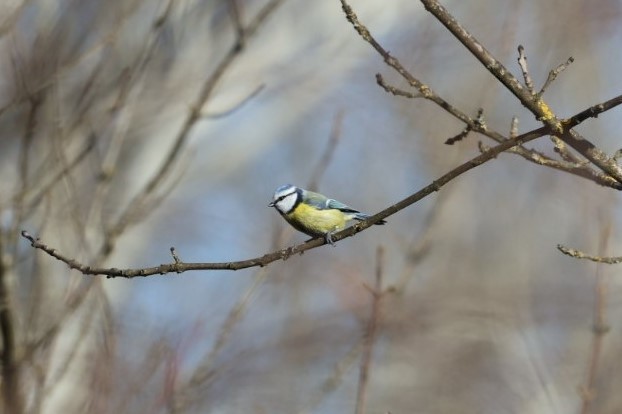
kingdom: Animalia
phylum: Chordata
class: Aves
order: Passeriformes
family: Paridae
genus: Cyanistes
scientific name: Cyanistes caeruleus
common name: Eurasian blue tit
